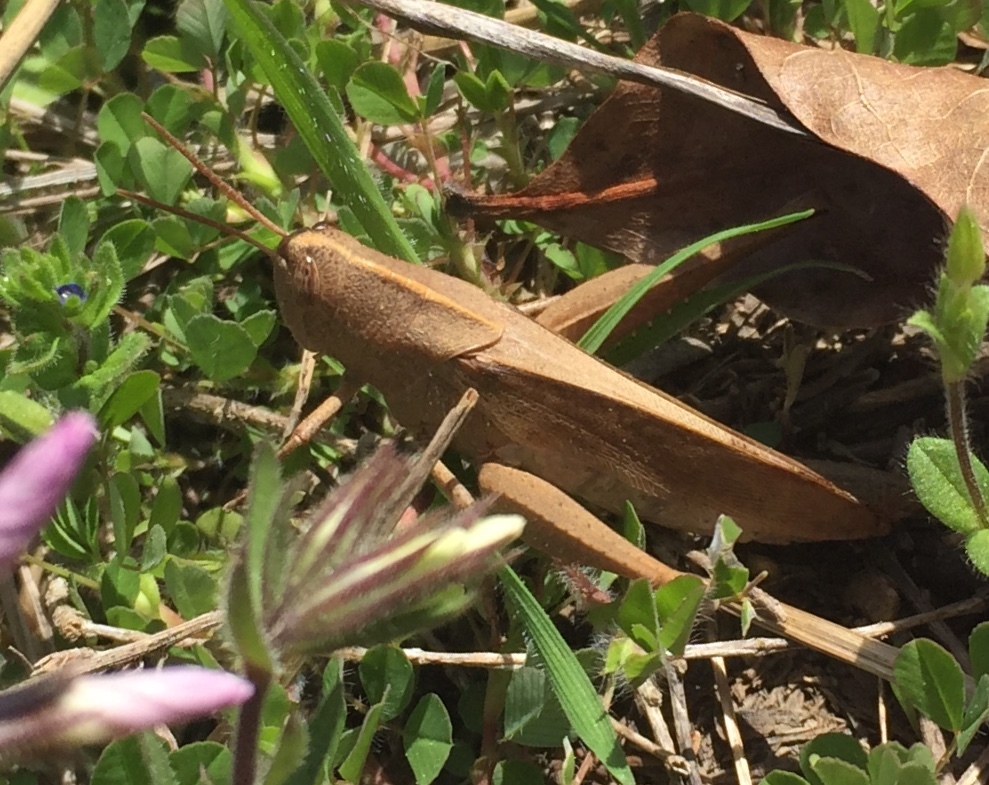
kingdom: Animalia
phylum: Arthropoda
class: Insecta
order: Orthoptera
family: Acrididae
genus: Schistocerca
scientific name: Schistocerca damnifica
